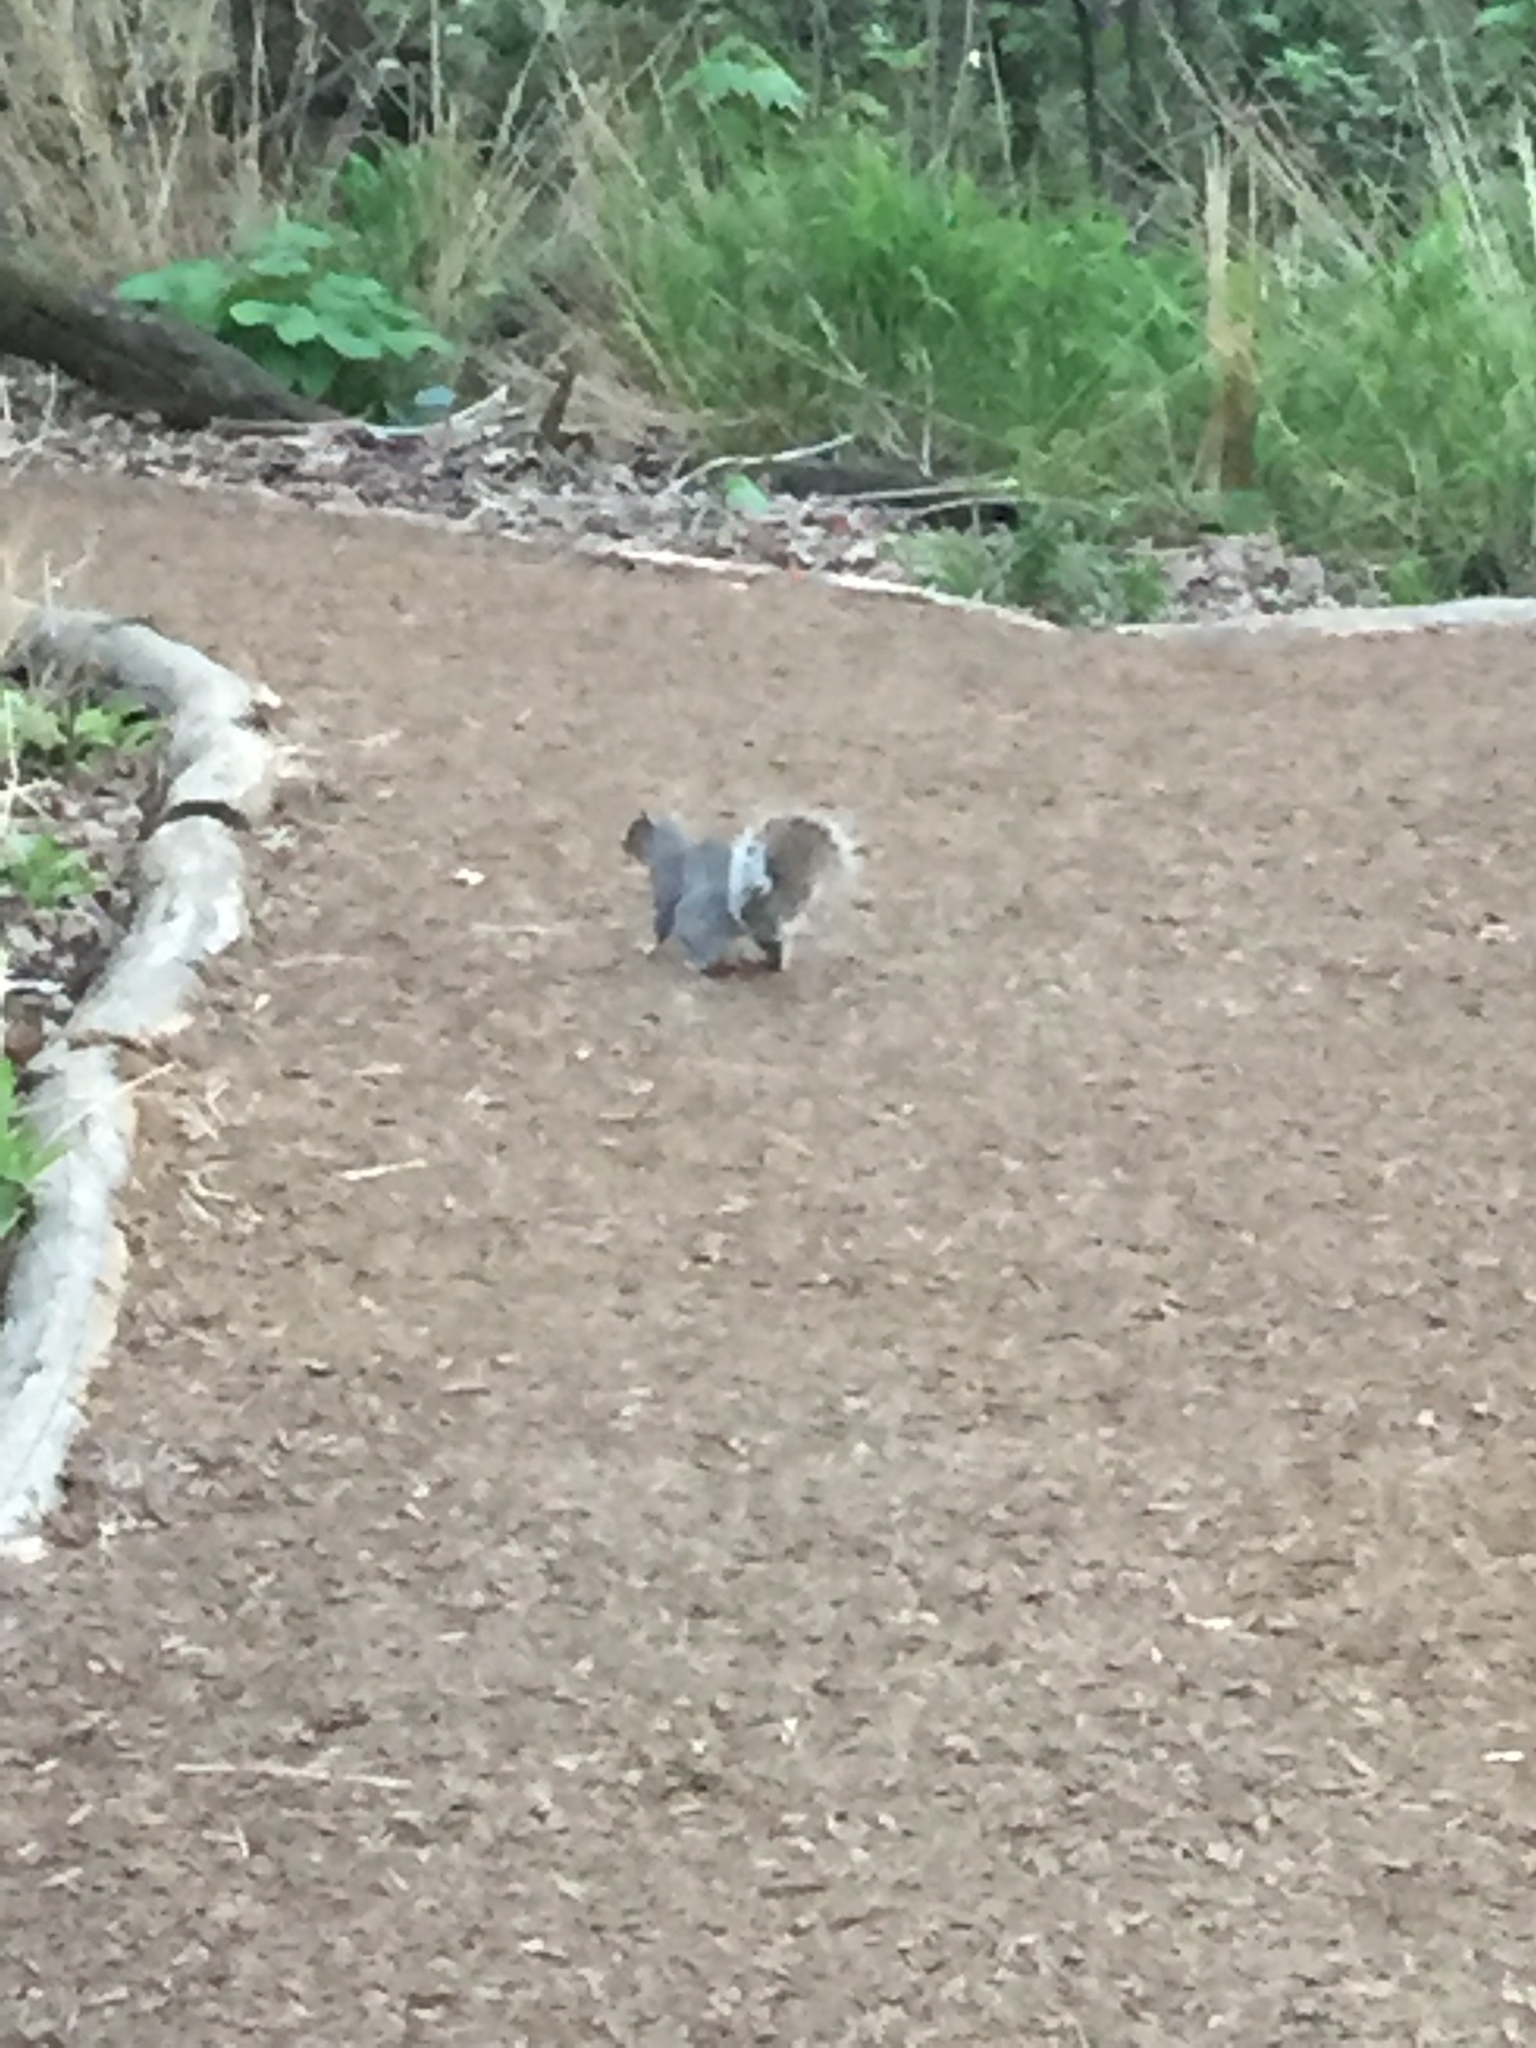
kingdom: Animalia
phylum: Chordata
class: Mammalia
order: Rodentia
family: Sciuridae
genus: Sciurus
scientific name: Sciurus carolinensis
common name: Eastern gray squirrel
